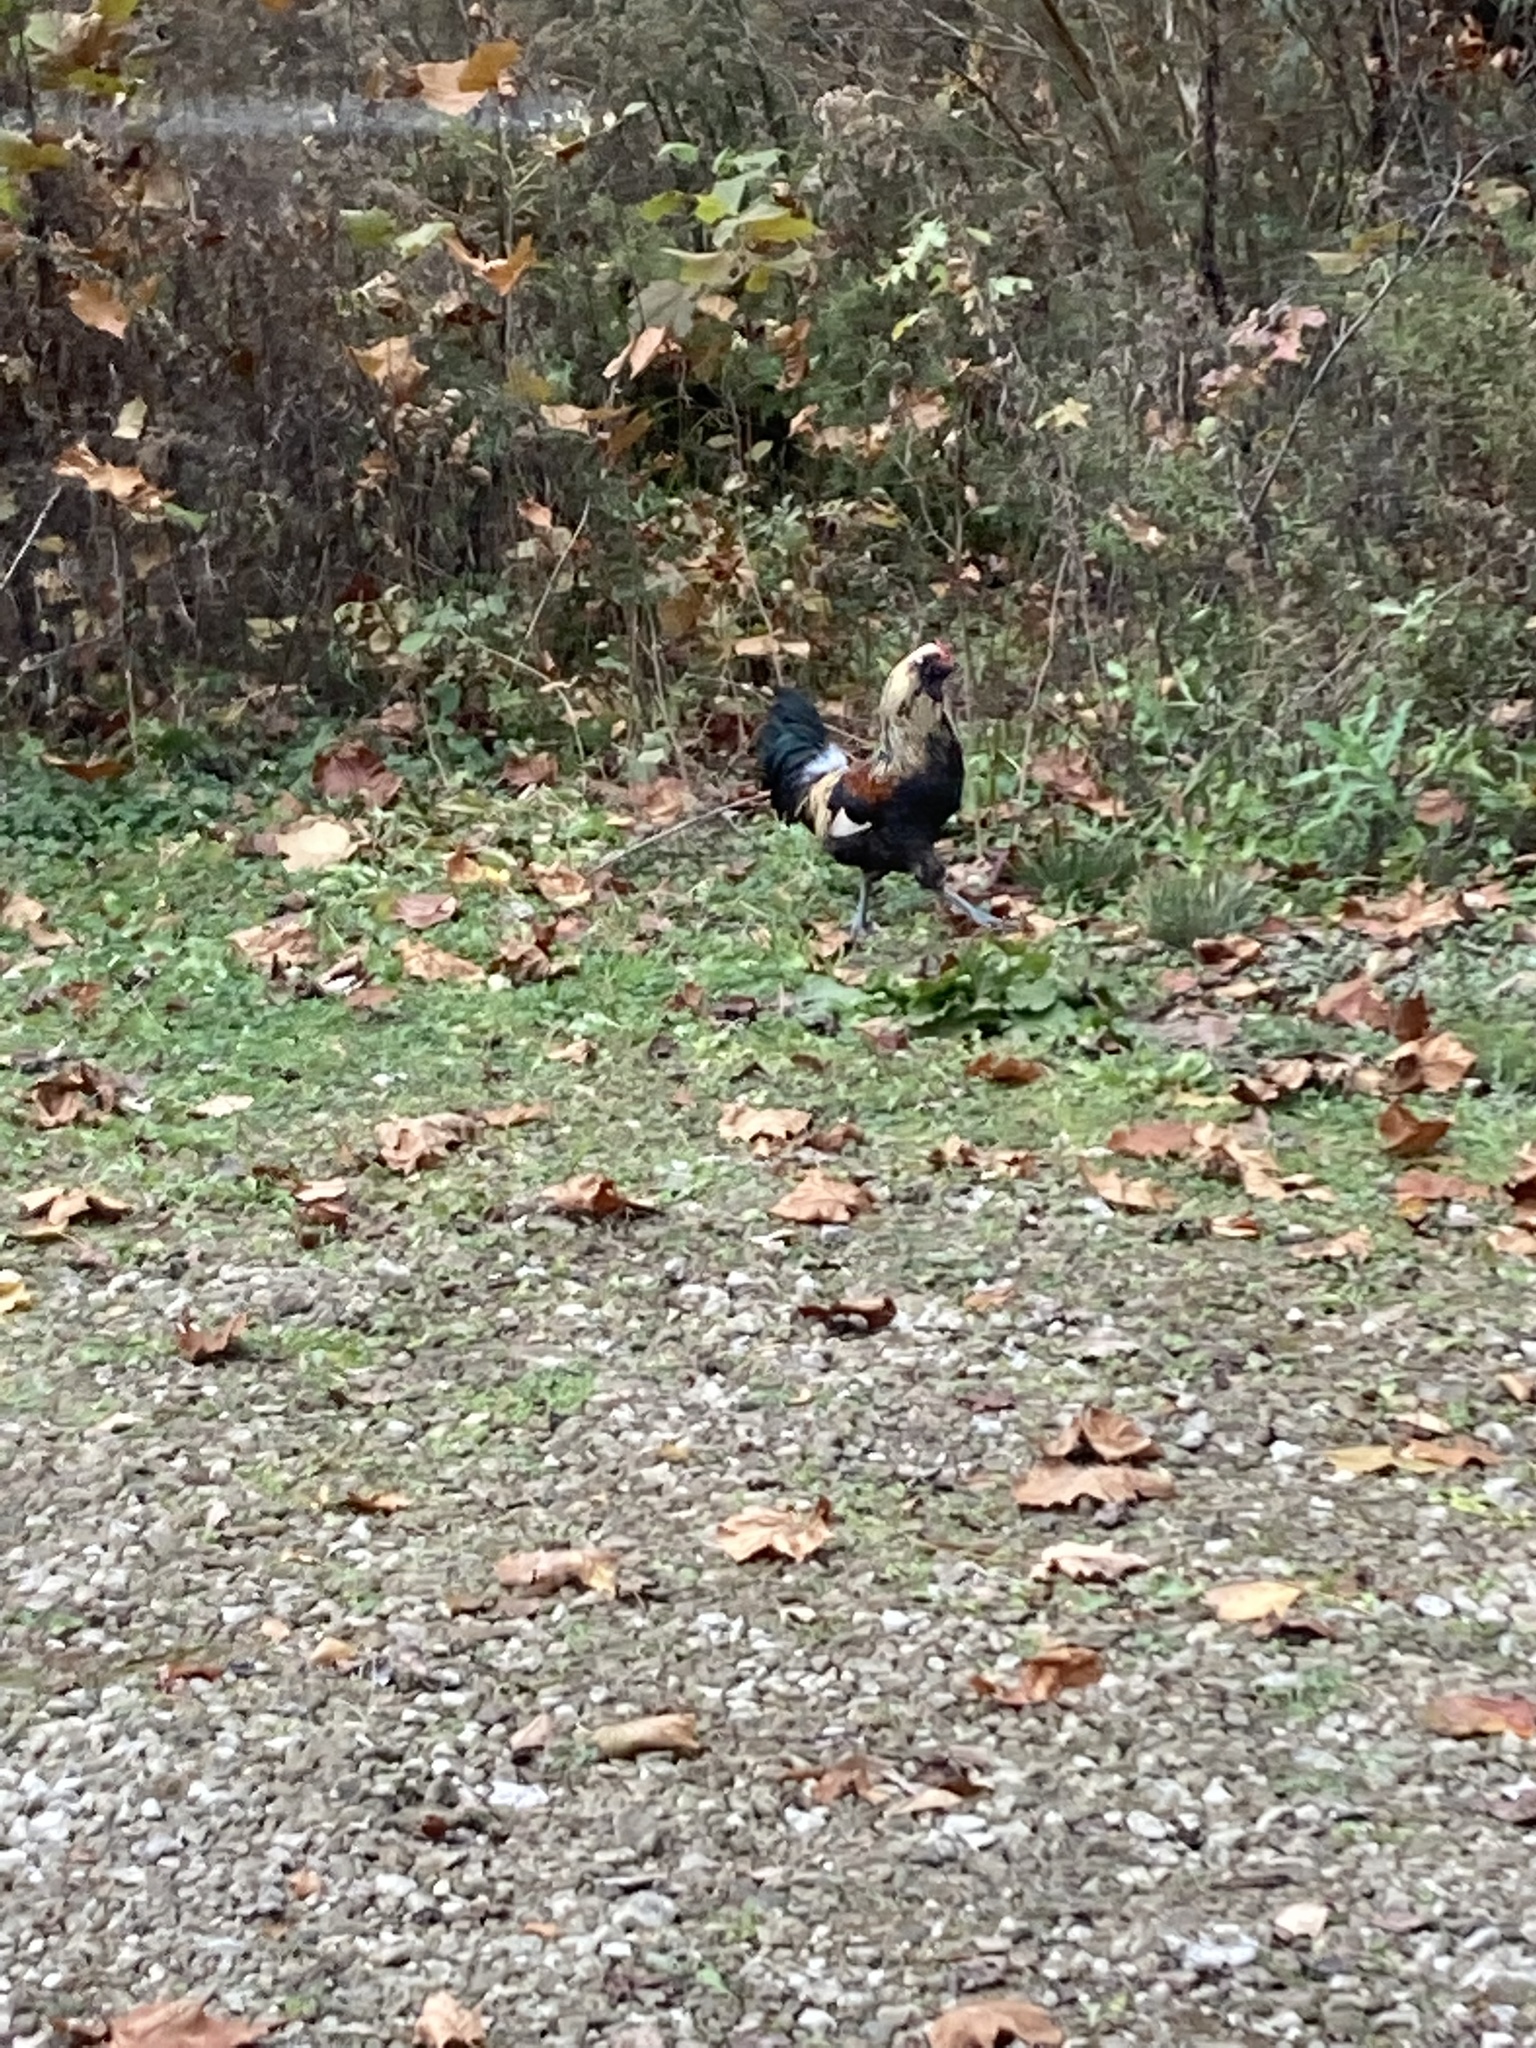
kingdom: Animalia
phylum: Chordata
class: Aves
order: Galliformes
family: Phasianidae
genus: Gallus
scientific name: Gallus gallus
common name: Red junglefowl
